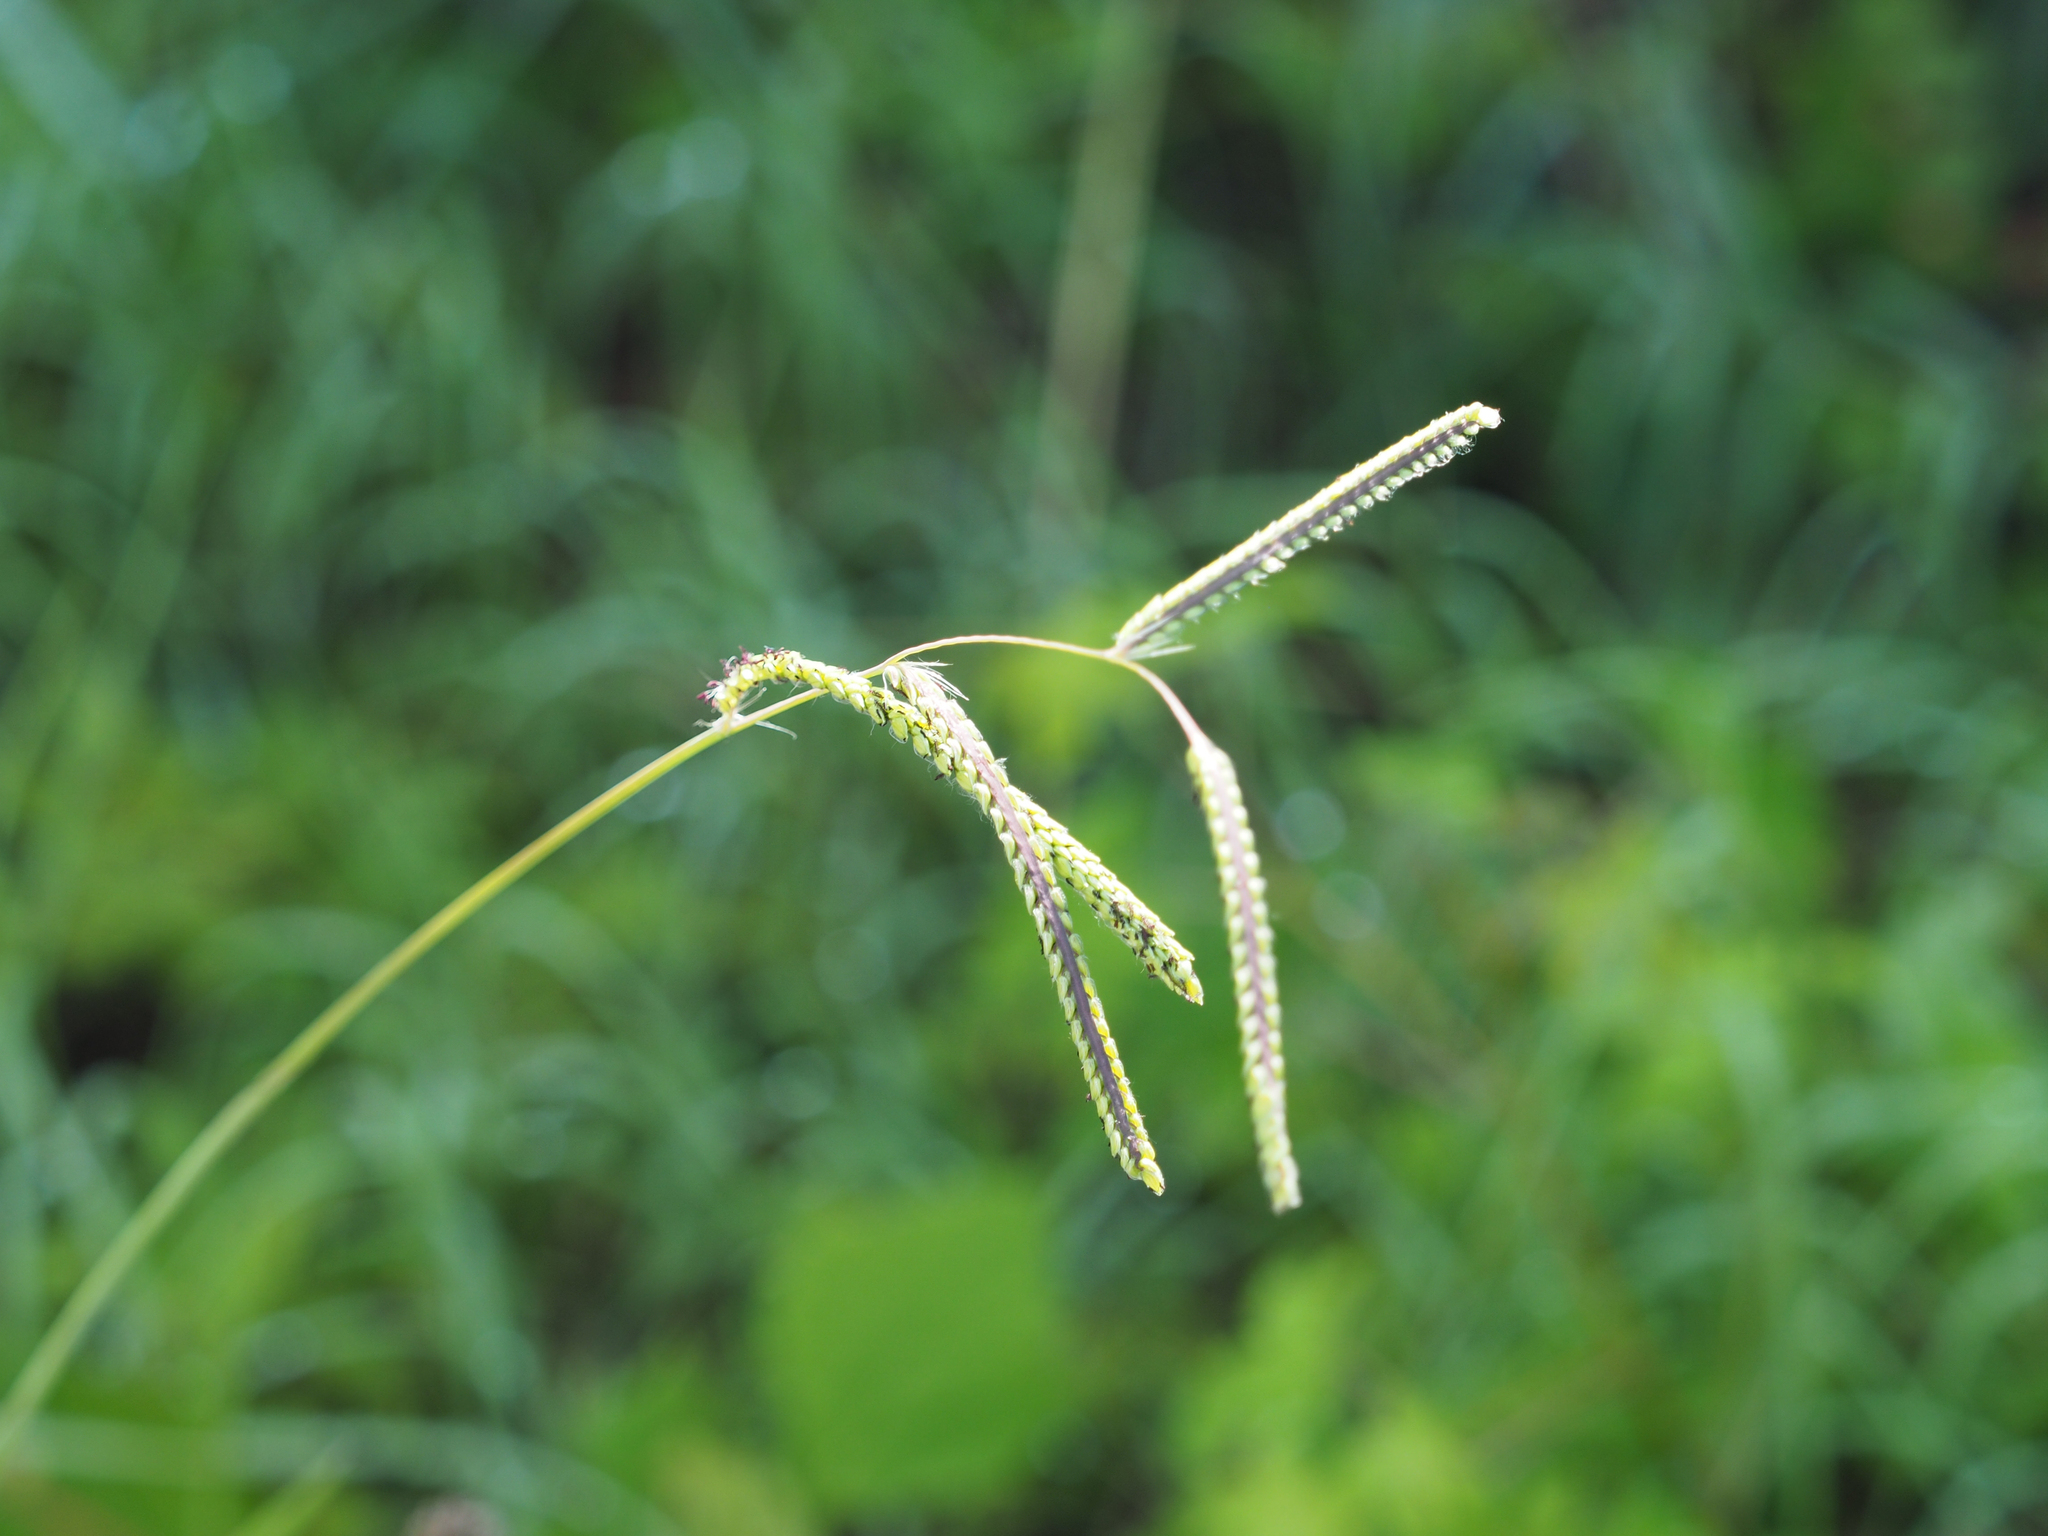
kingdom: Plantae
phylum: Tracheophyta
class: Liliopsida
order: Poales
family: Poaceae
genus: Paspalum
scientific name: Paspalum dilatatum
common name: Dallisgrass
